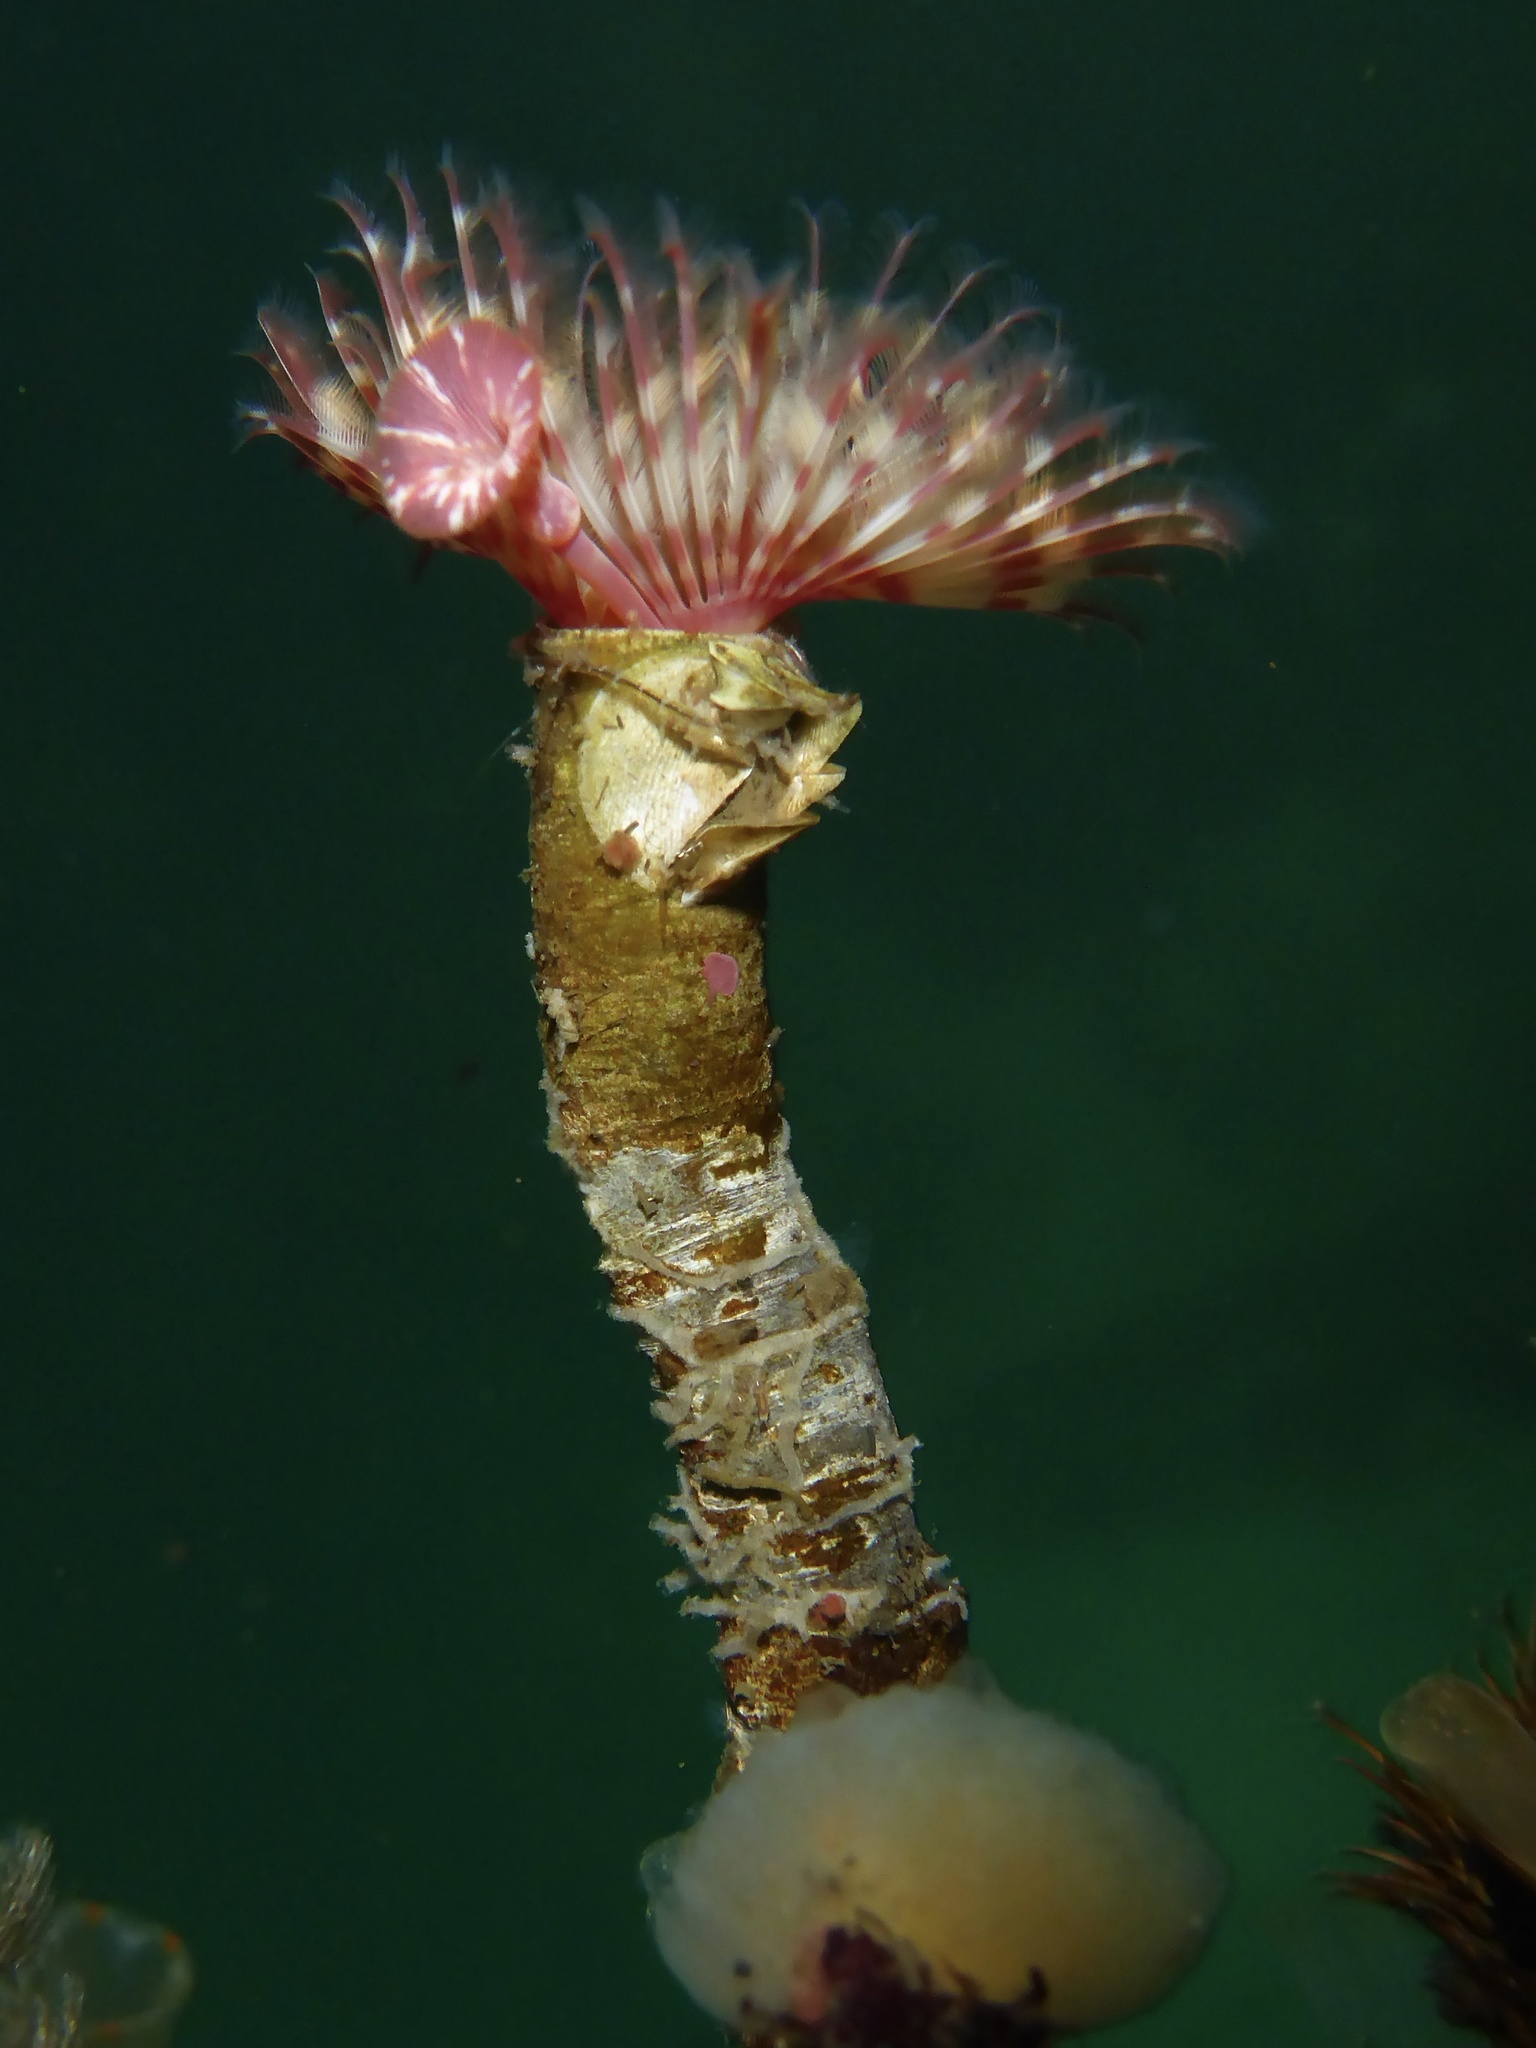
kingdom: Animalia
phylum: Annelida
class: Polychaeta
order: Sabellida
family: Serpulidae
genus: Serpula
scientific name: Serpula columbiana
